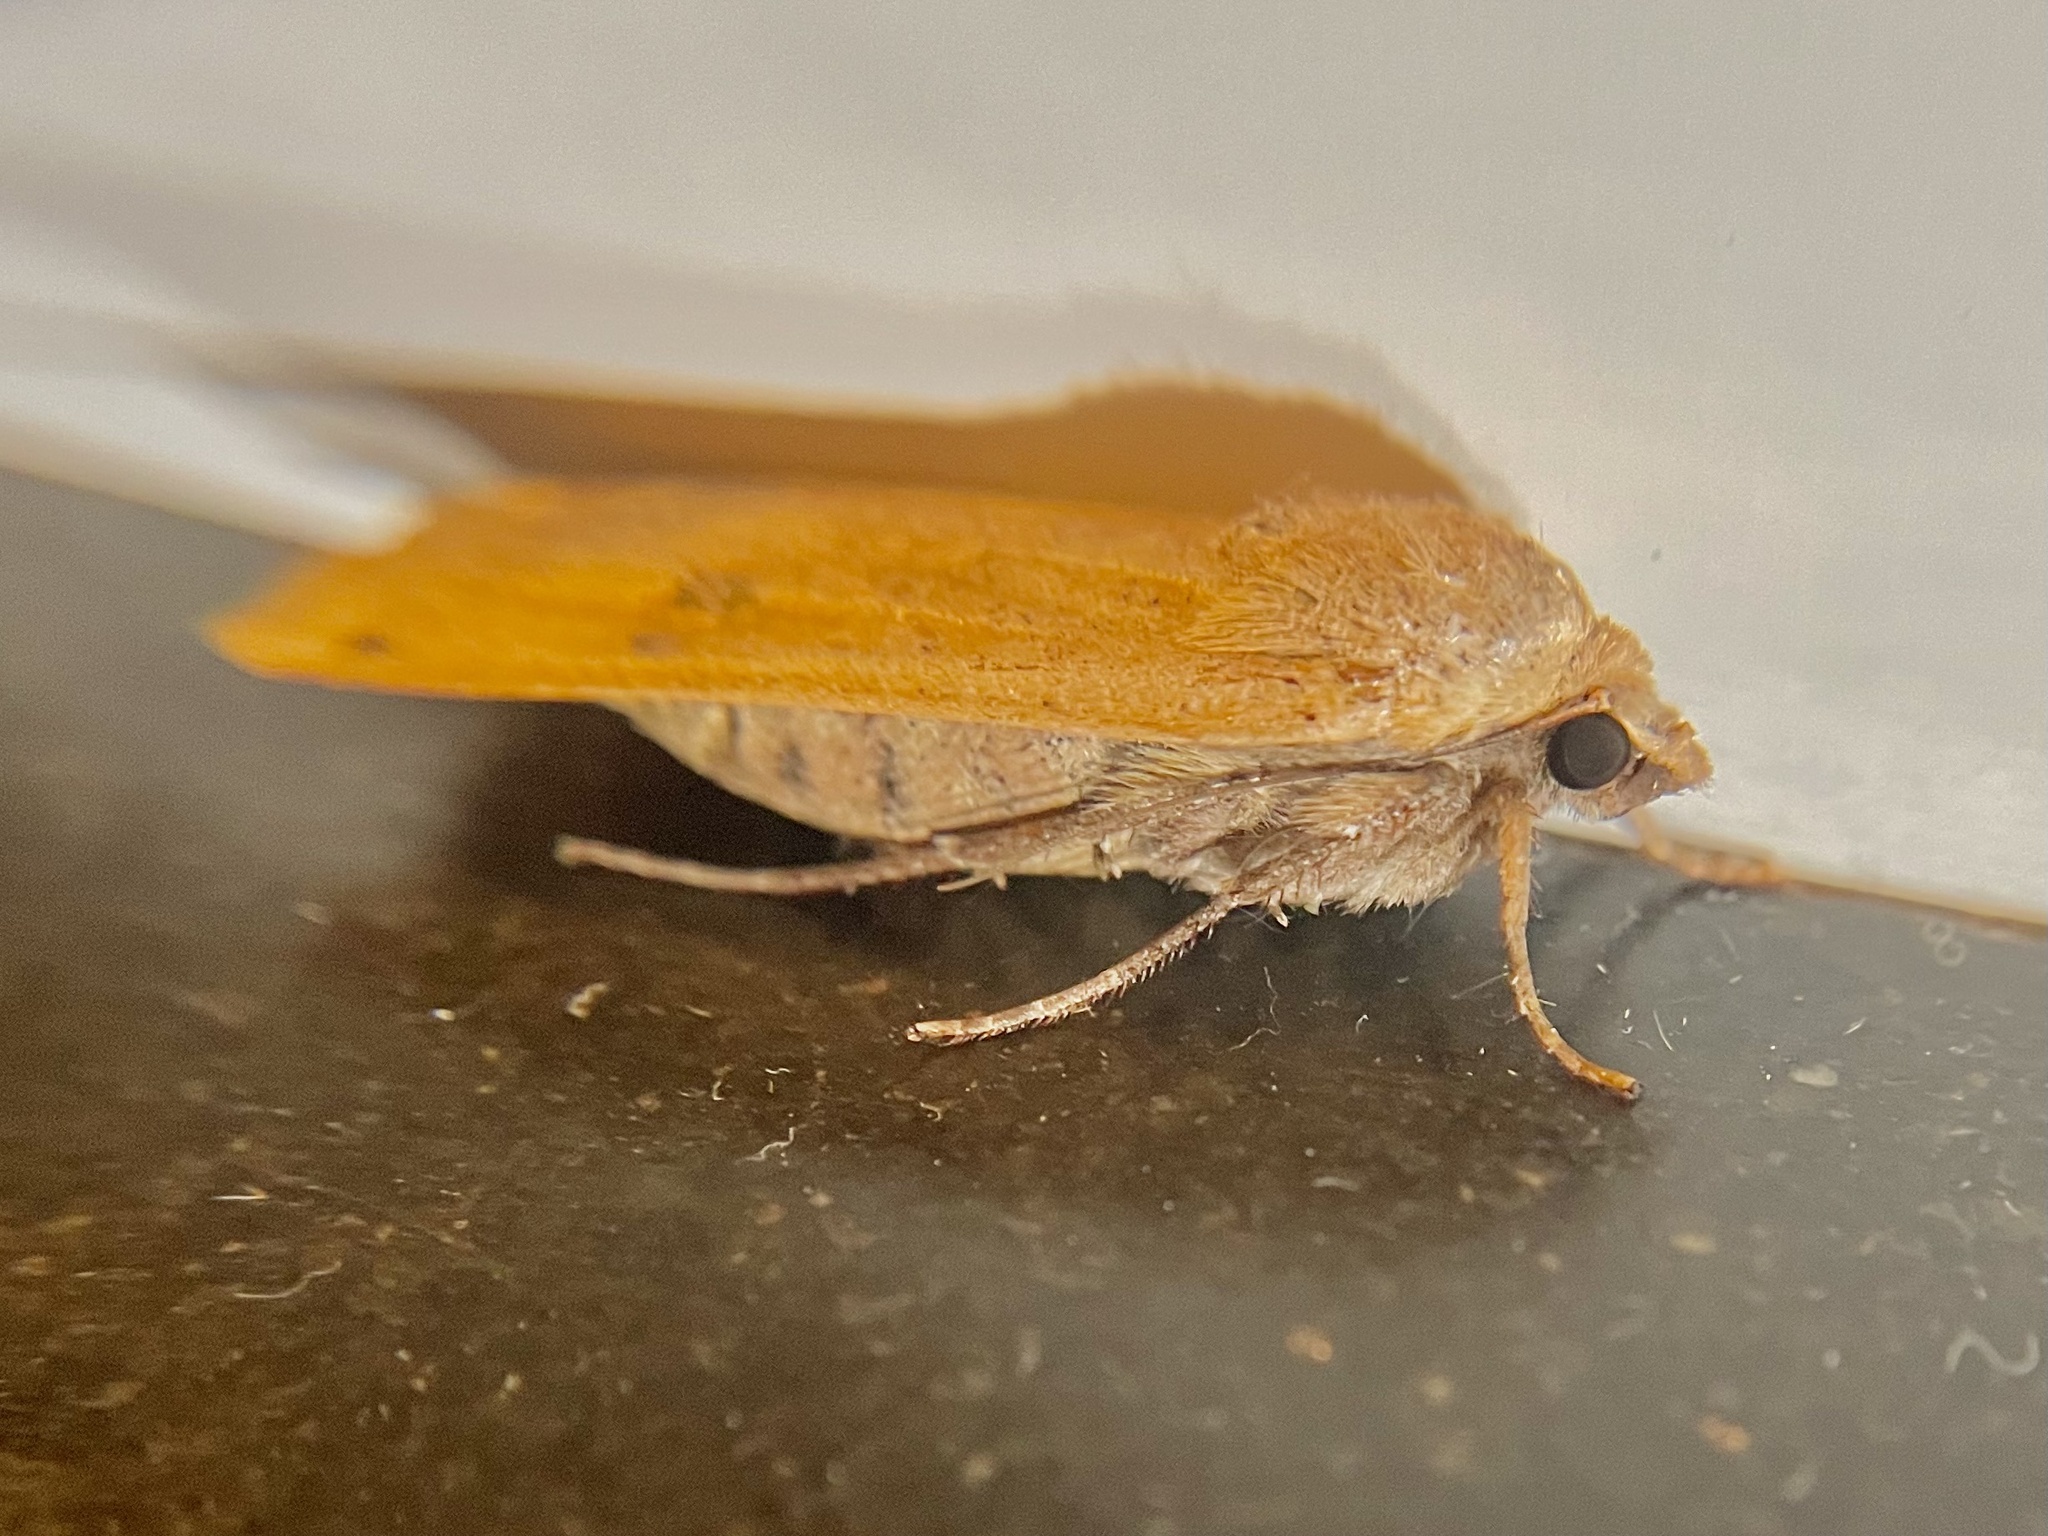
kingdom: Animalia
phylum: Arthropoda
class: Insecta
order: Lepidoptera
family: Noctuidae
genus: Noctua
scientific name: Noctua pronuba
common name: Large yellow underwing
